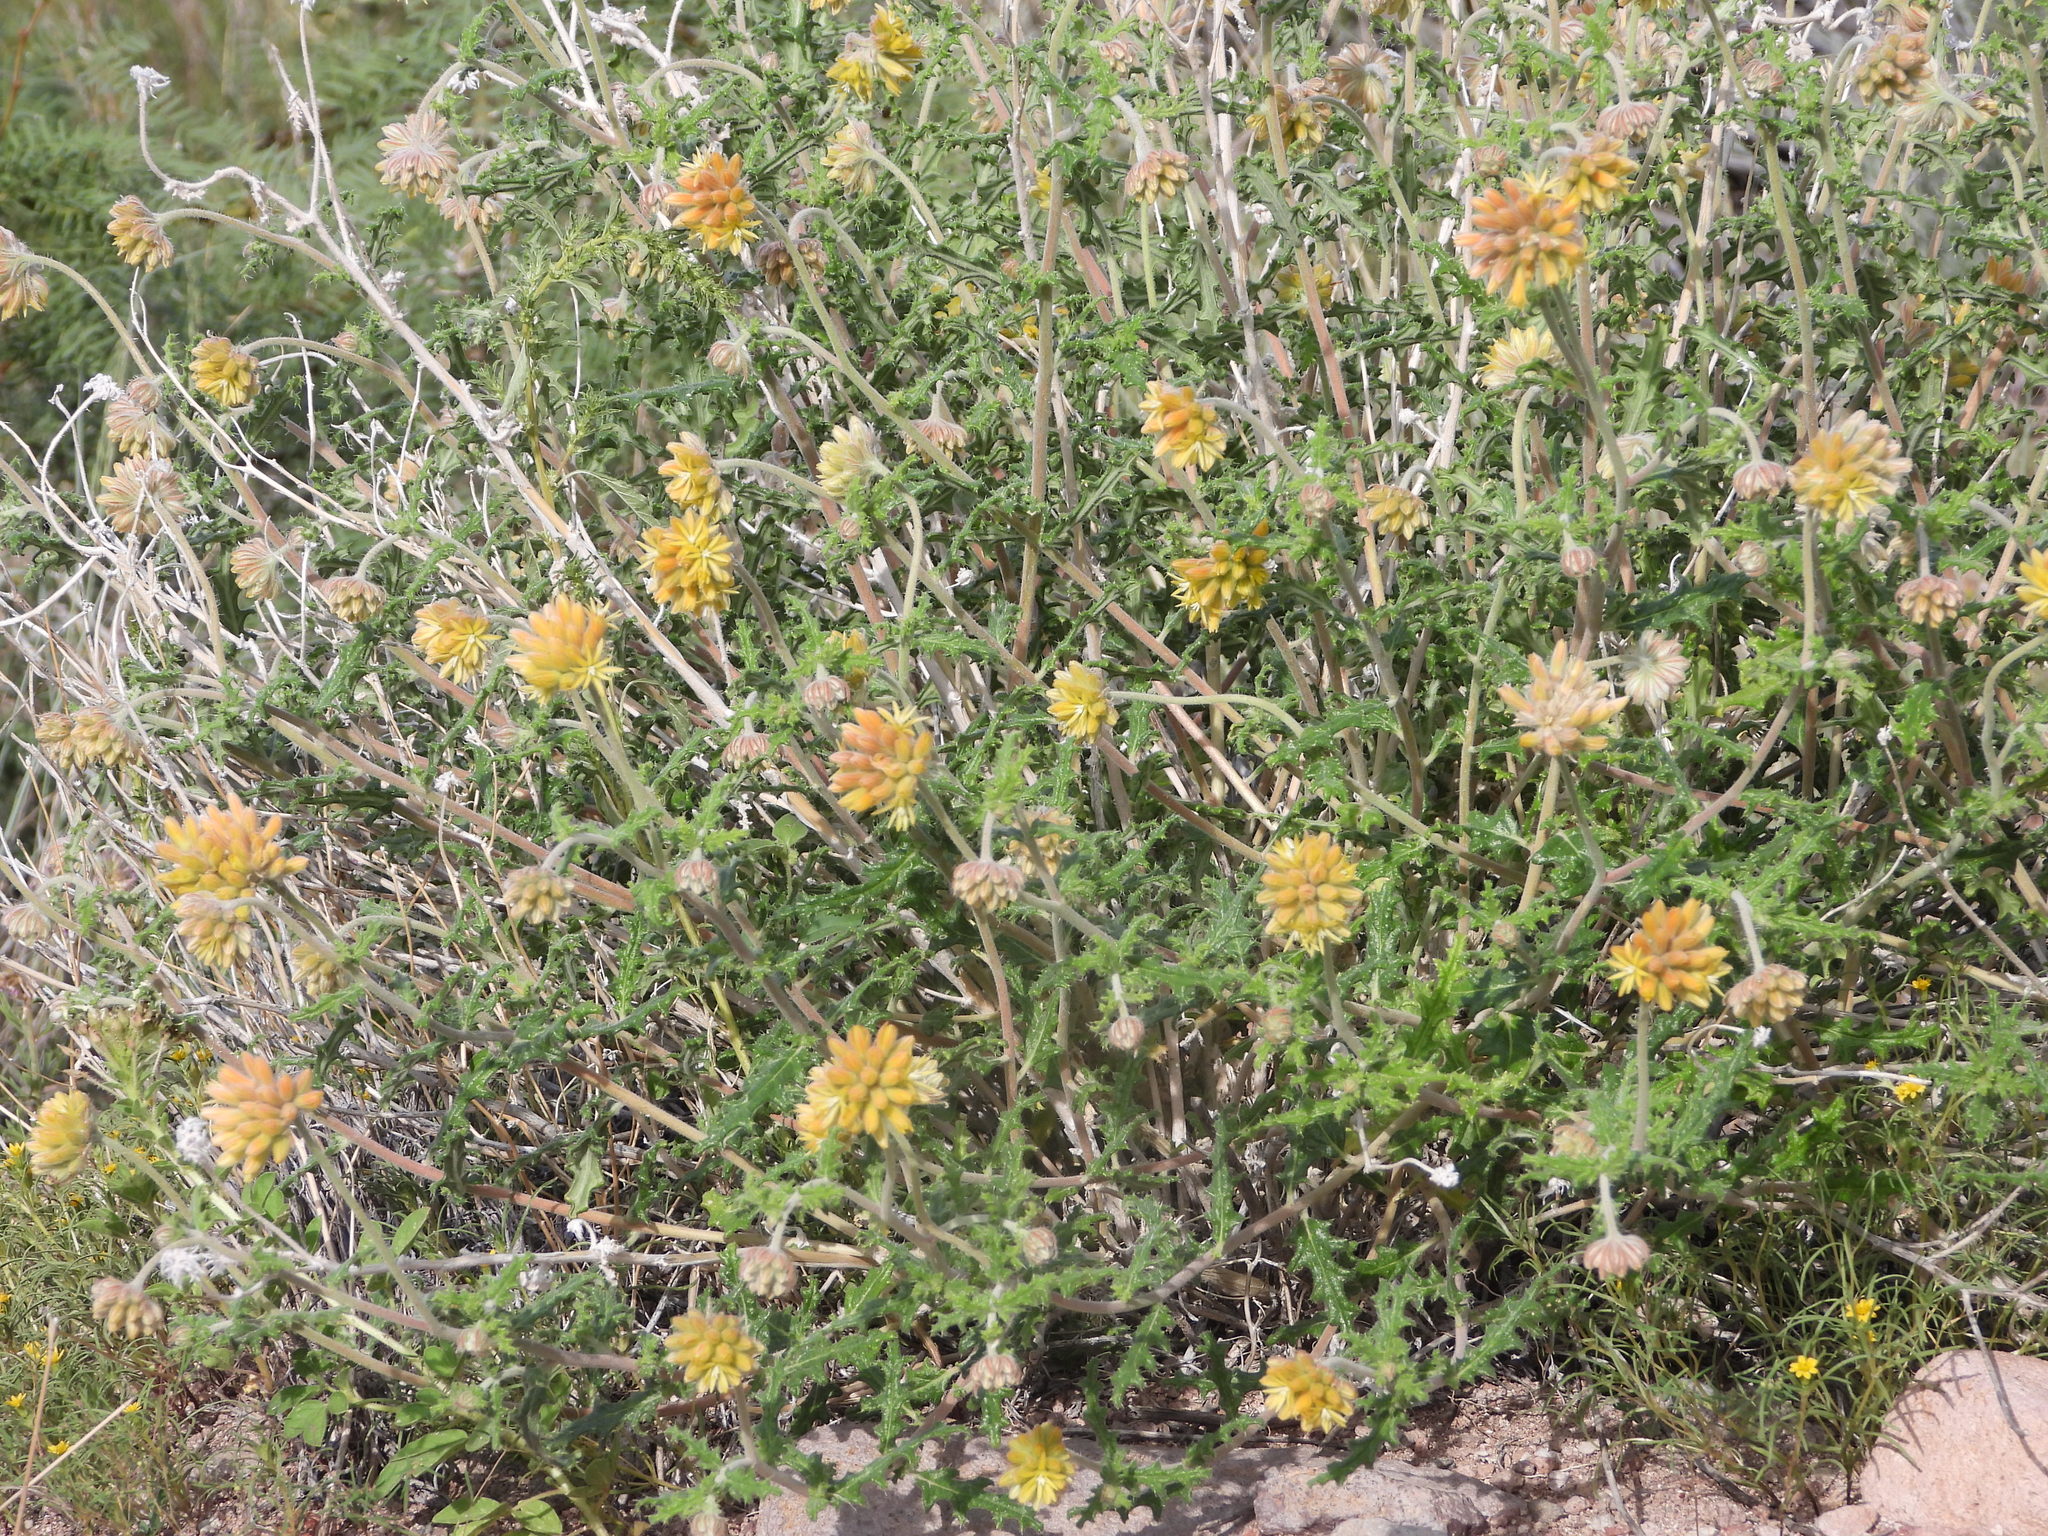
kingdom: Plantae
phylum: Tracheophyta
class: Magnoliopsida
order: Cornales
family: Loasaceae
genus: Cevallia
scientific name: Cevallia sinuata
